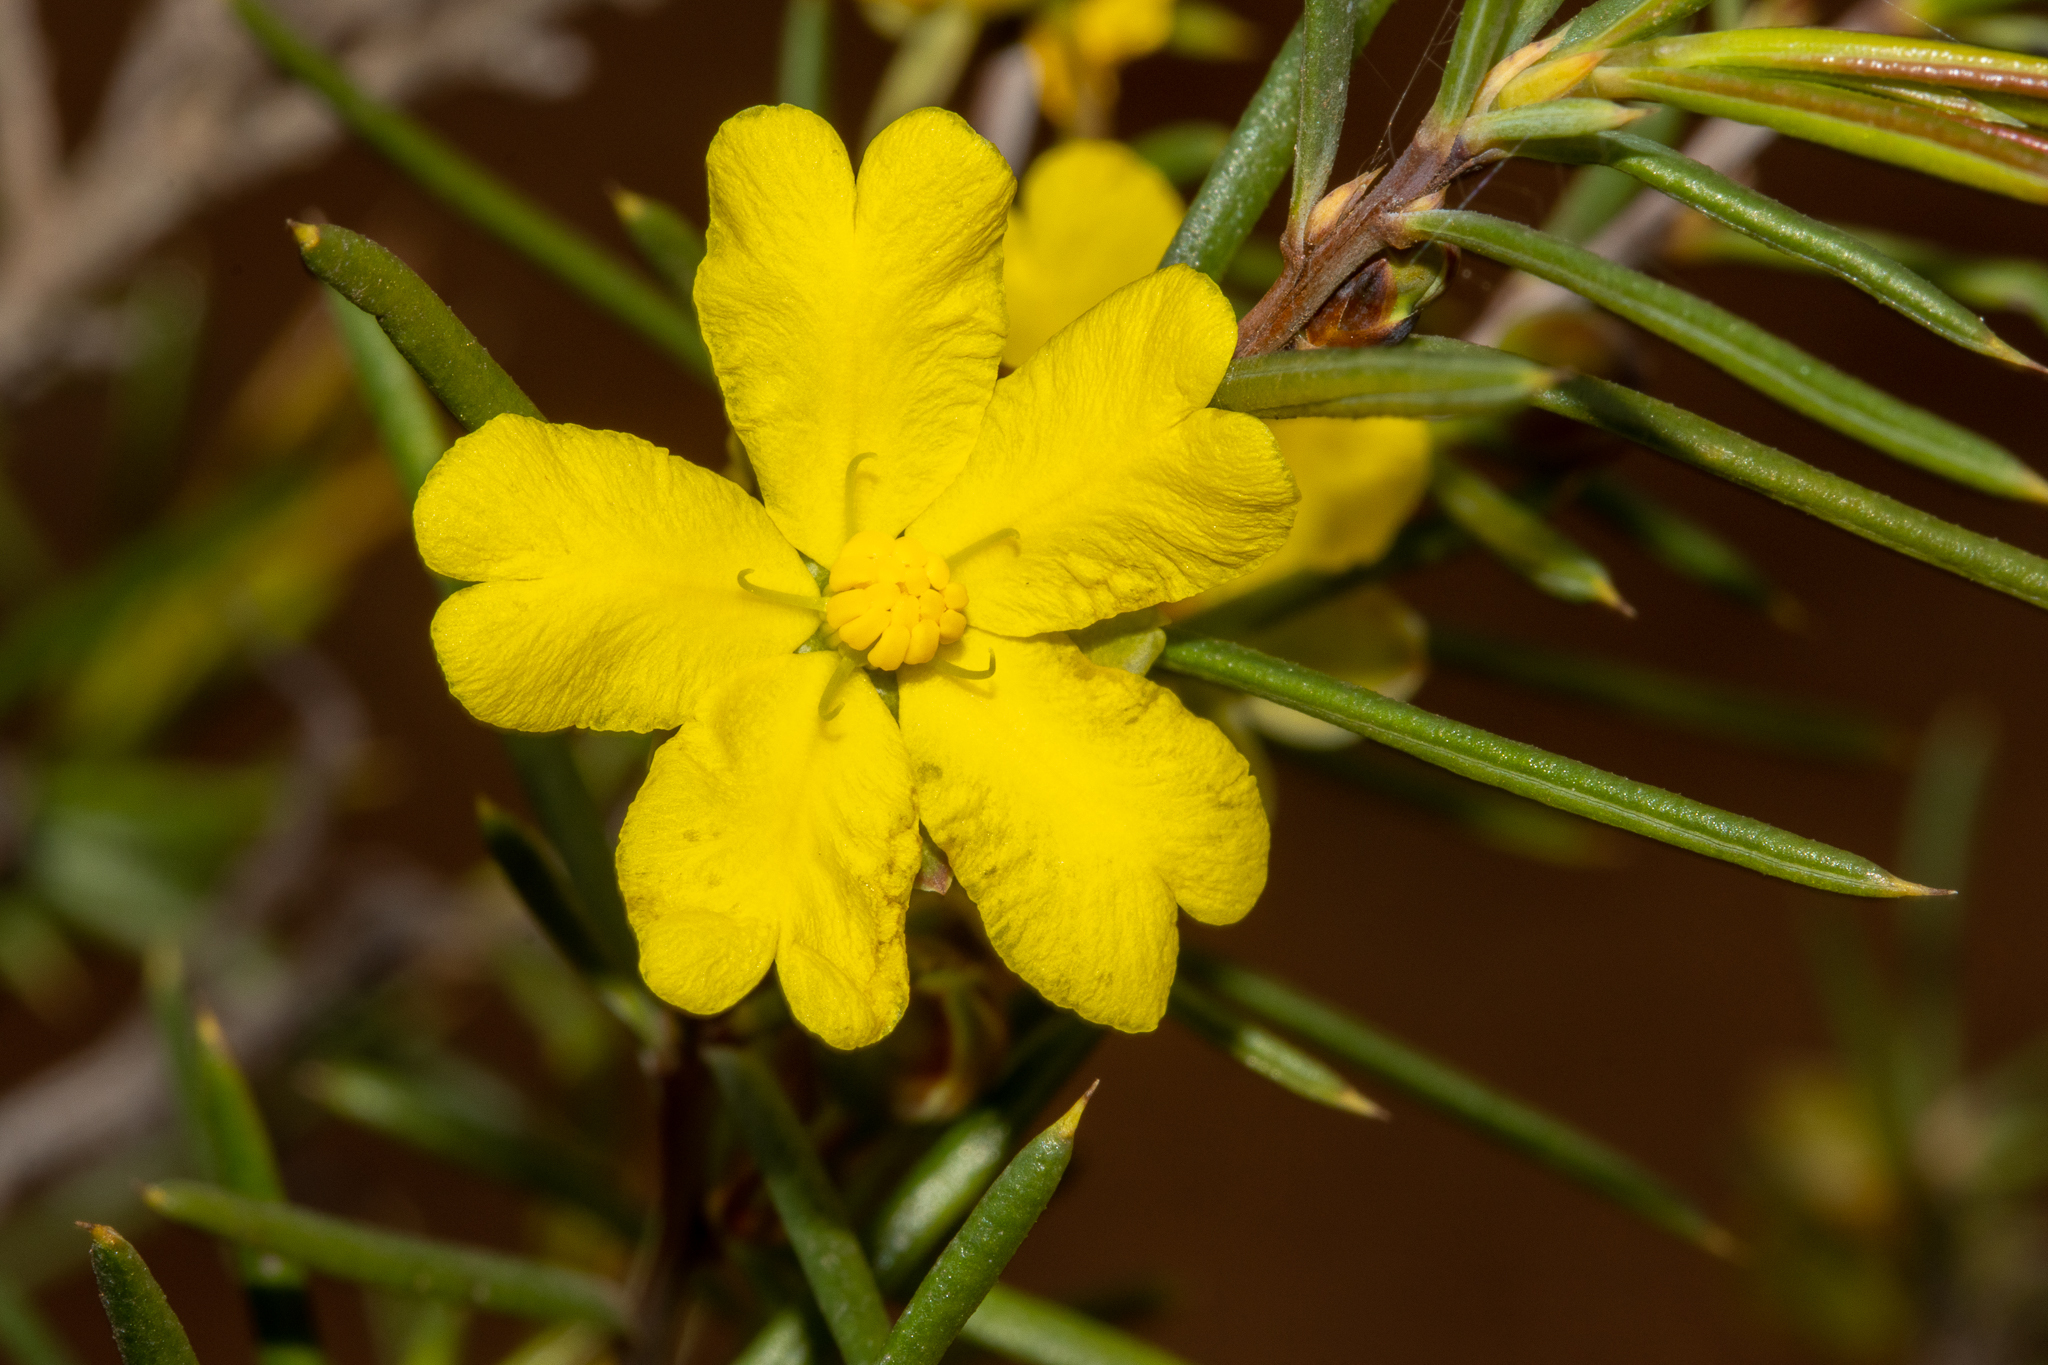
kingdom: Plantae
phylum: Tracheophyta
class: Magnoliopsida
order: Dilleniales
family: Dilleniaceae
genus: Hibbertia
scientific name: Hibbertia exasperata
